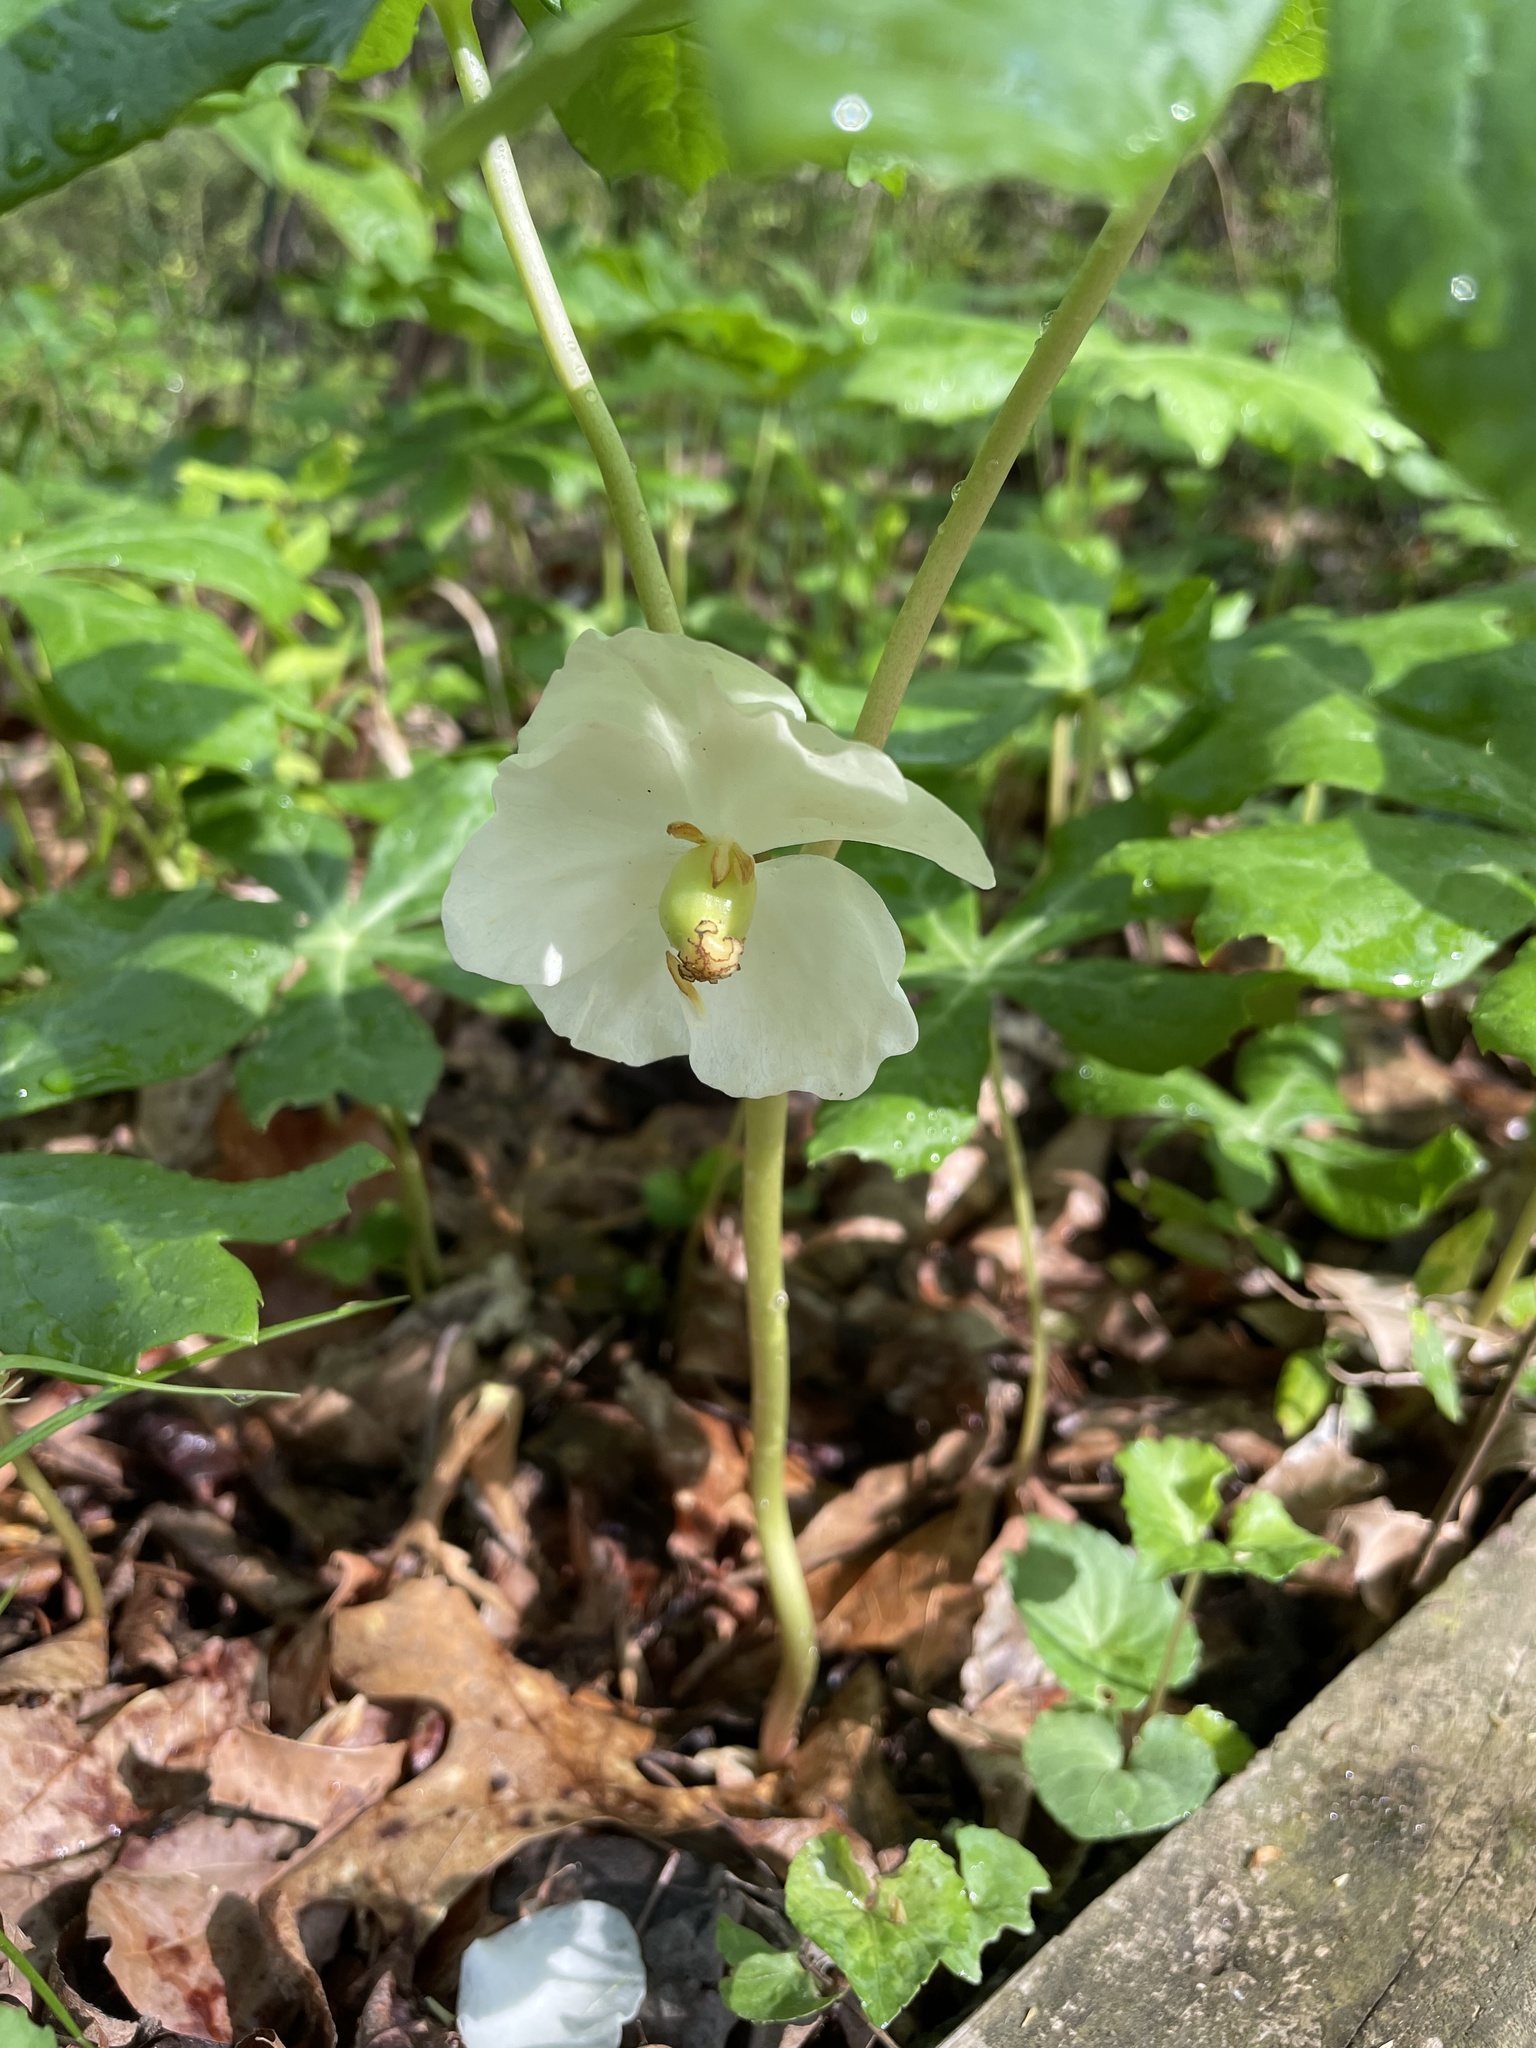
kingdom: Plantae
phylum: Tracheophyta
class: Magnoliopsida
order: Ranunculales
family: Berberidaceae
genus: Podophyllum
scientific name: Podophyllum peltatum
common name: Wild mandrake
